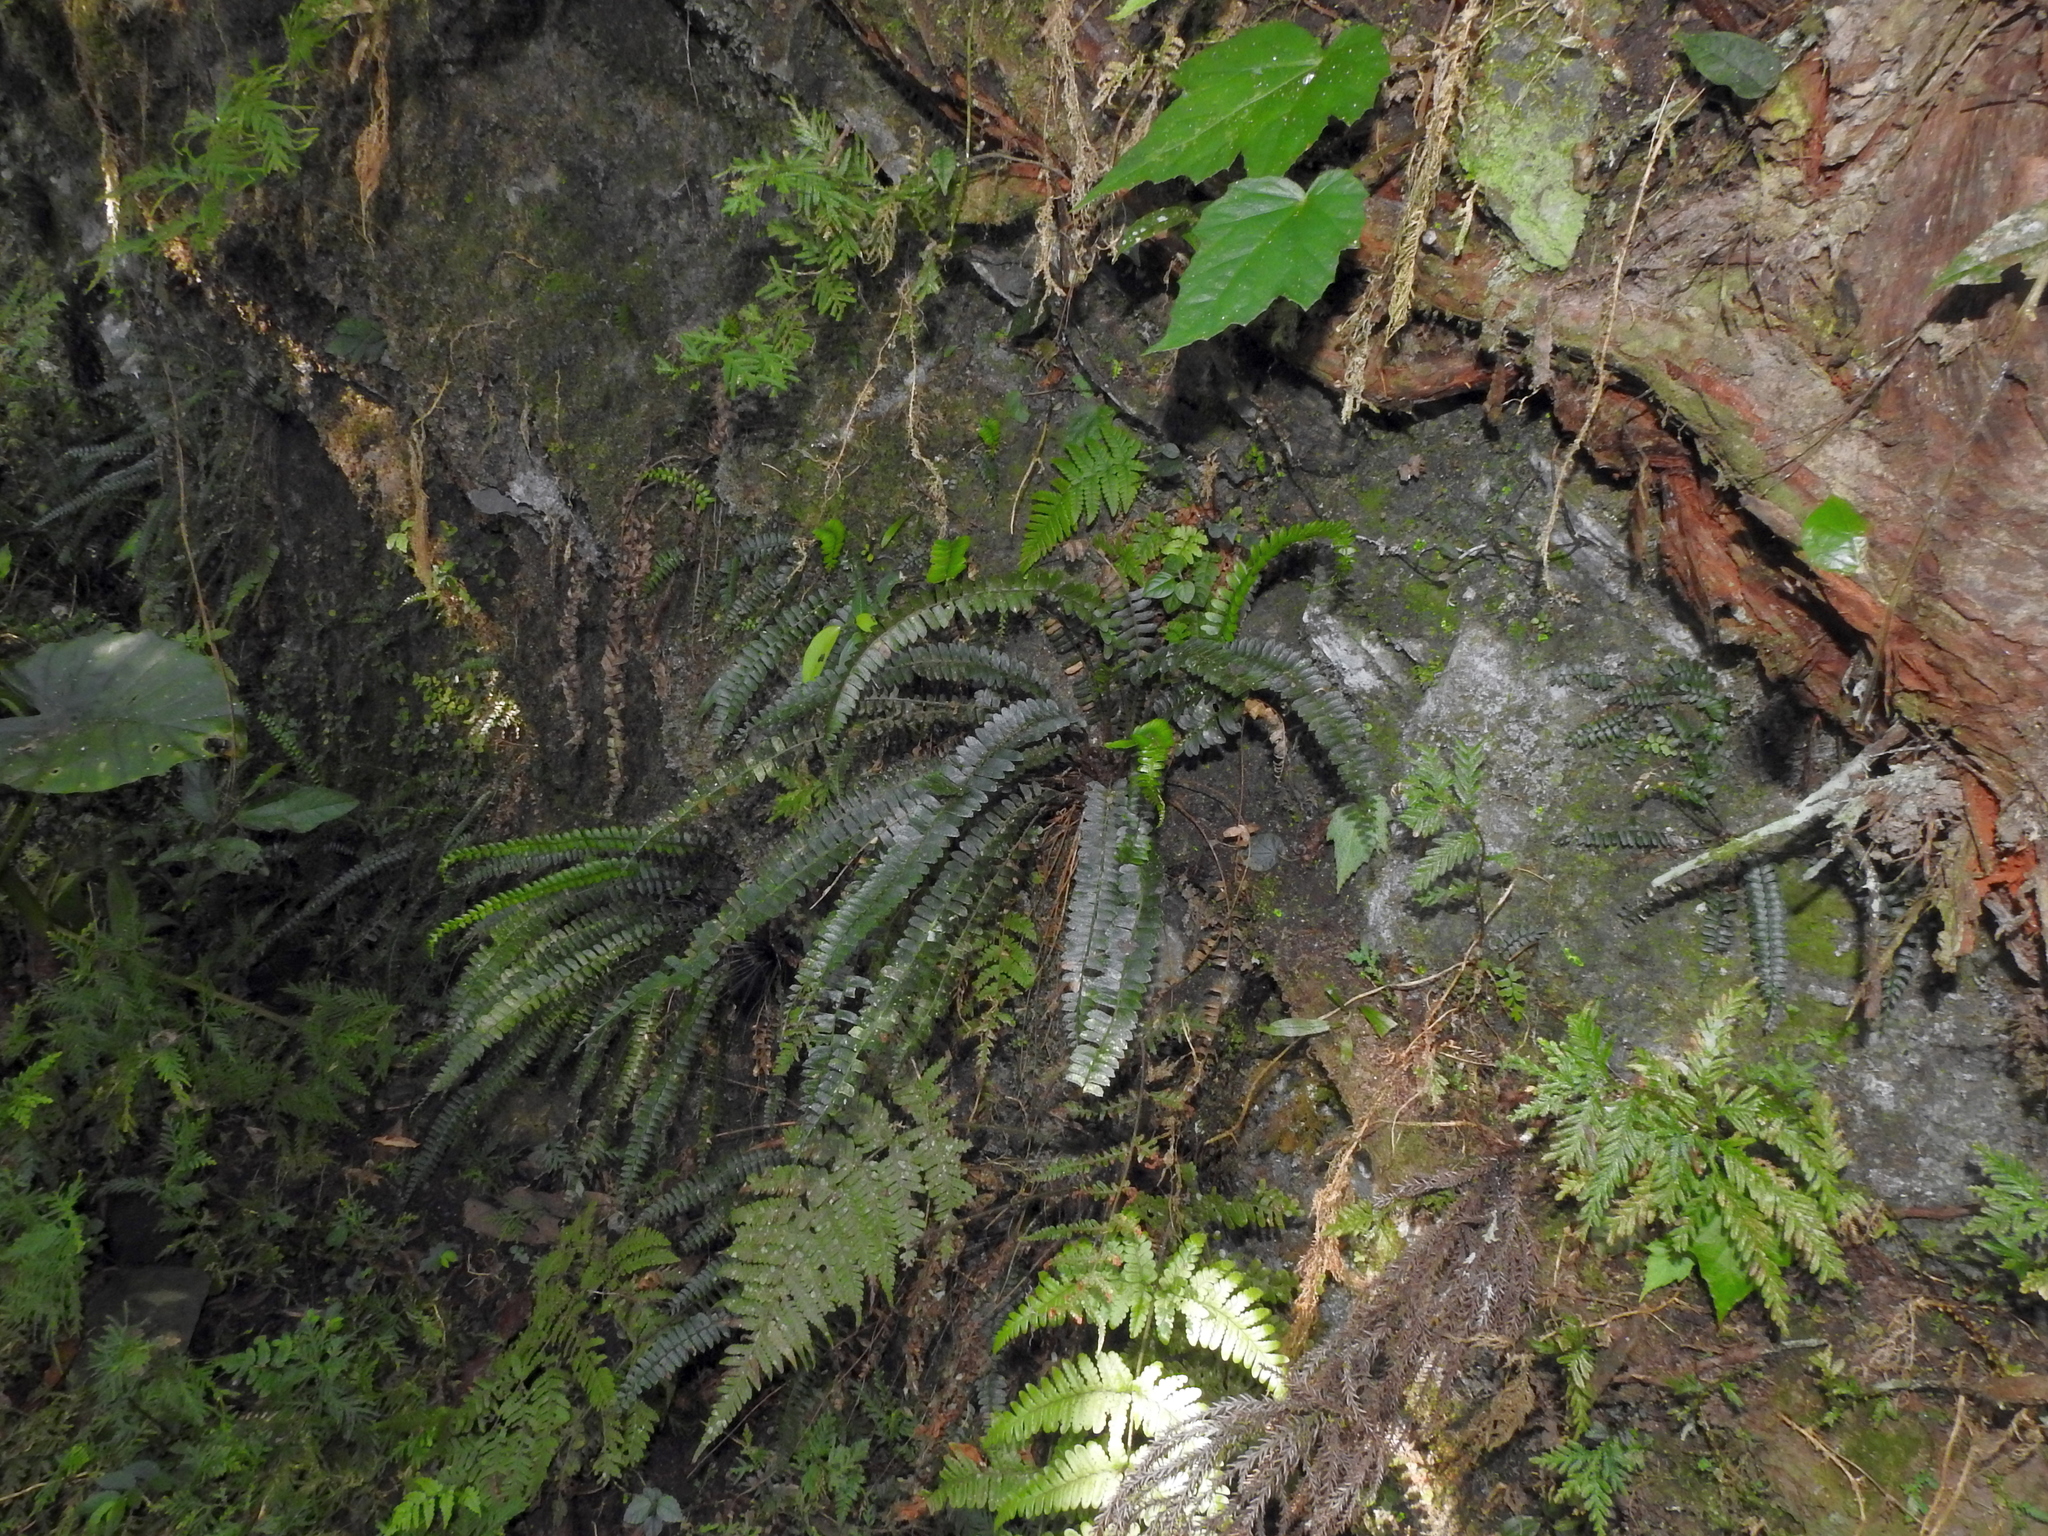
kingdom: Plantae
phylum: Tracheophyta
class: Polypodiopsida
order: Polypodiales
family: Dryopteridaceae
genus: Polystichum
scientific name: Polystichum deltodon
